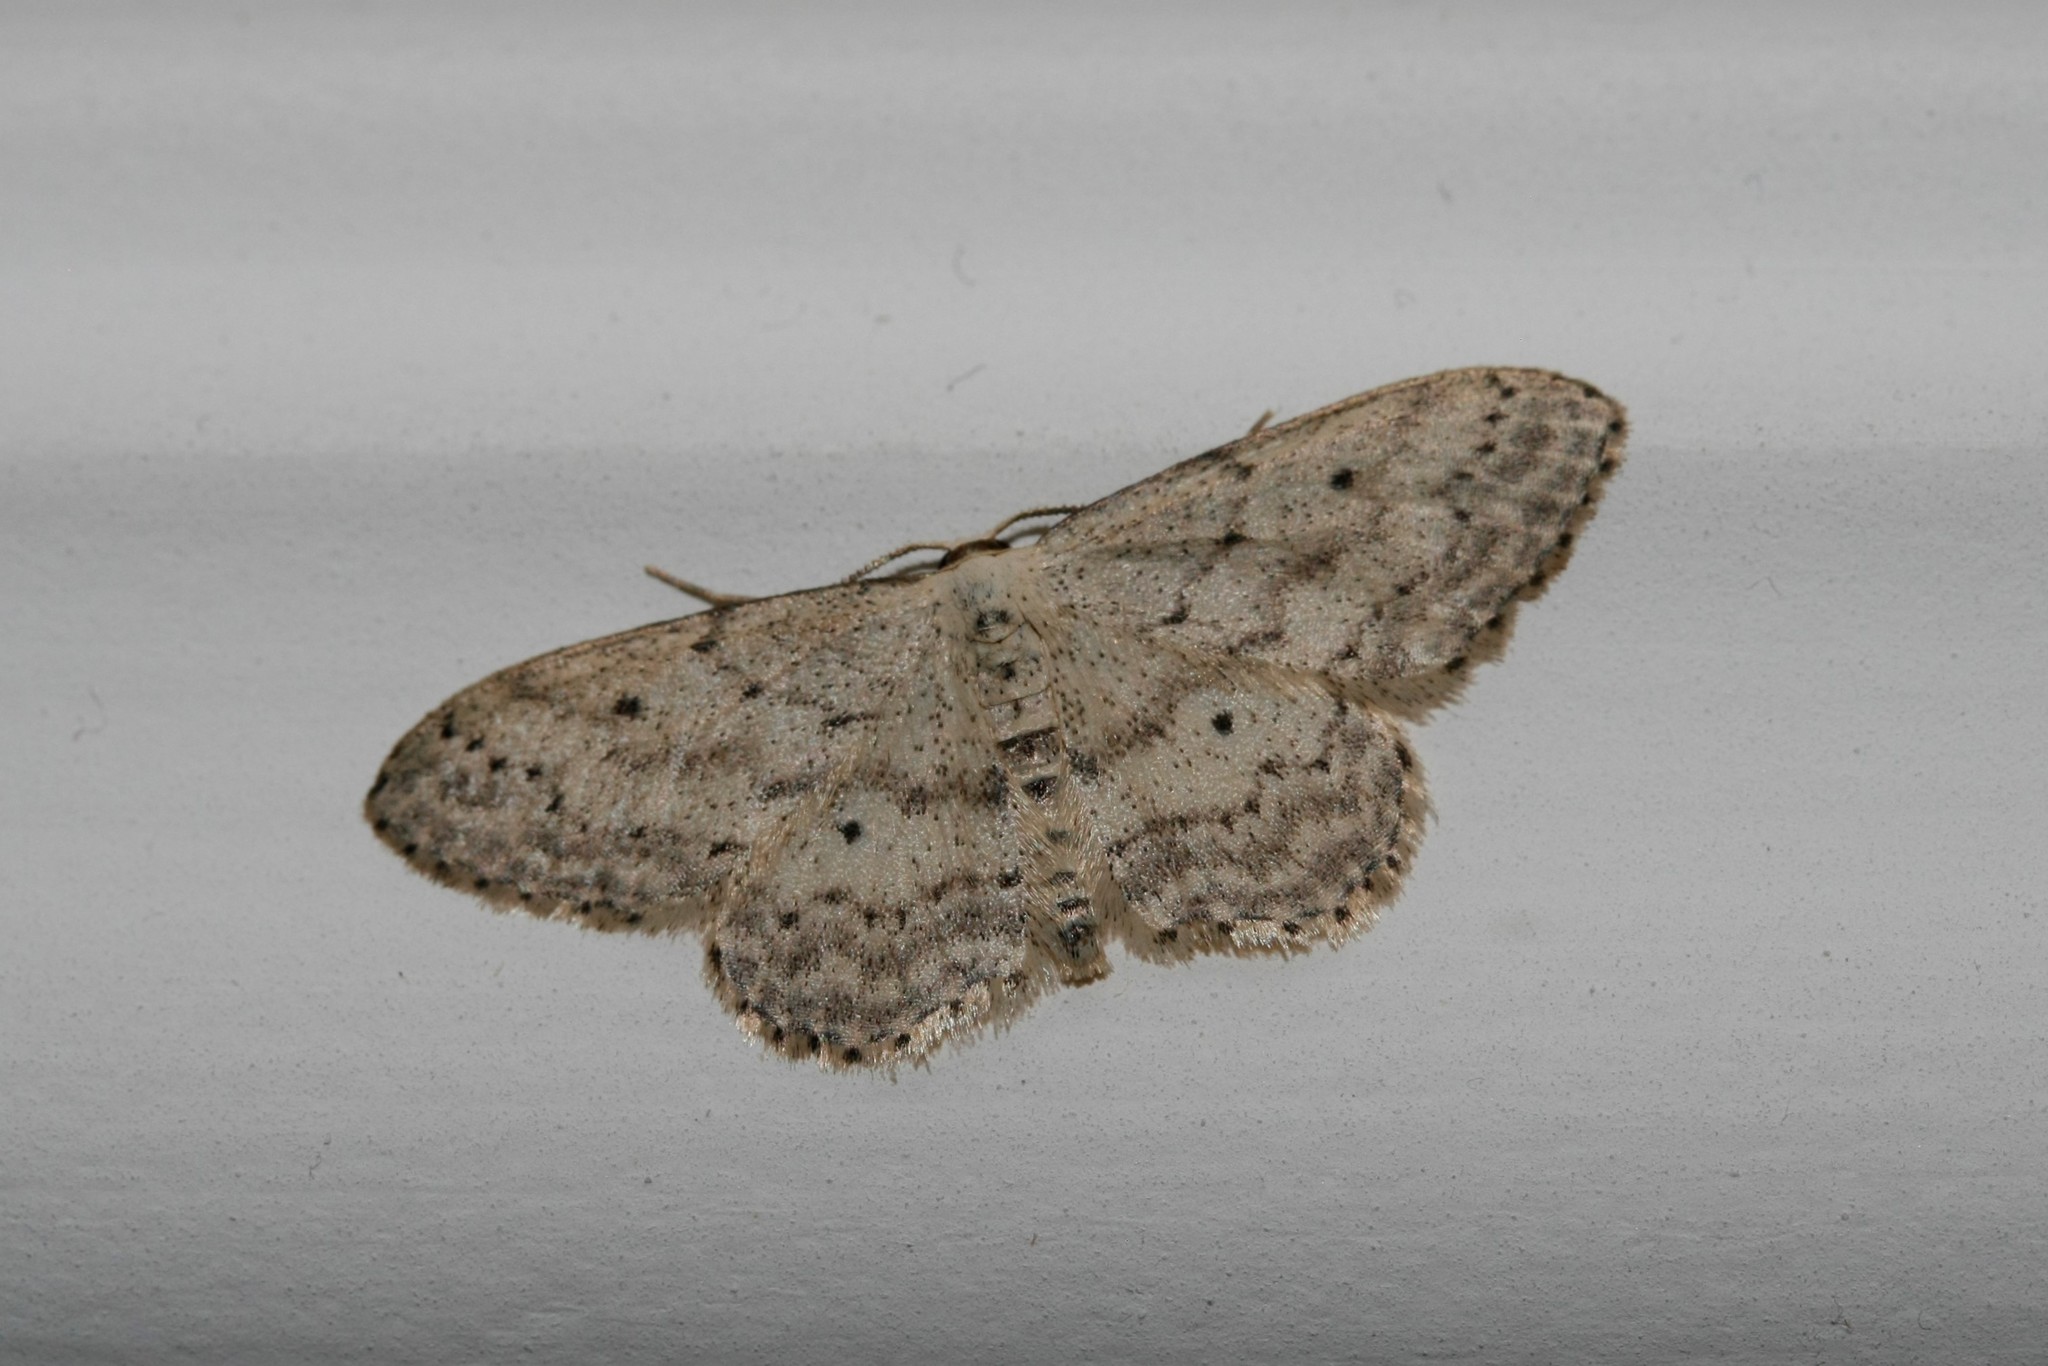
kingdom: Animalia
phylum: Arthropoda
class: Insecta
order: Lepidoptera
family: Geometridae
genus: Idaea
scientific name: Idaea seriata
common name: Small dusty wave
